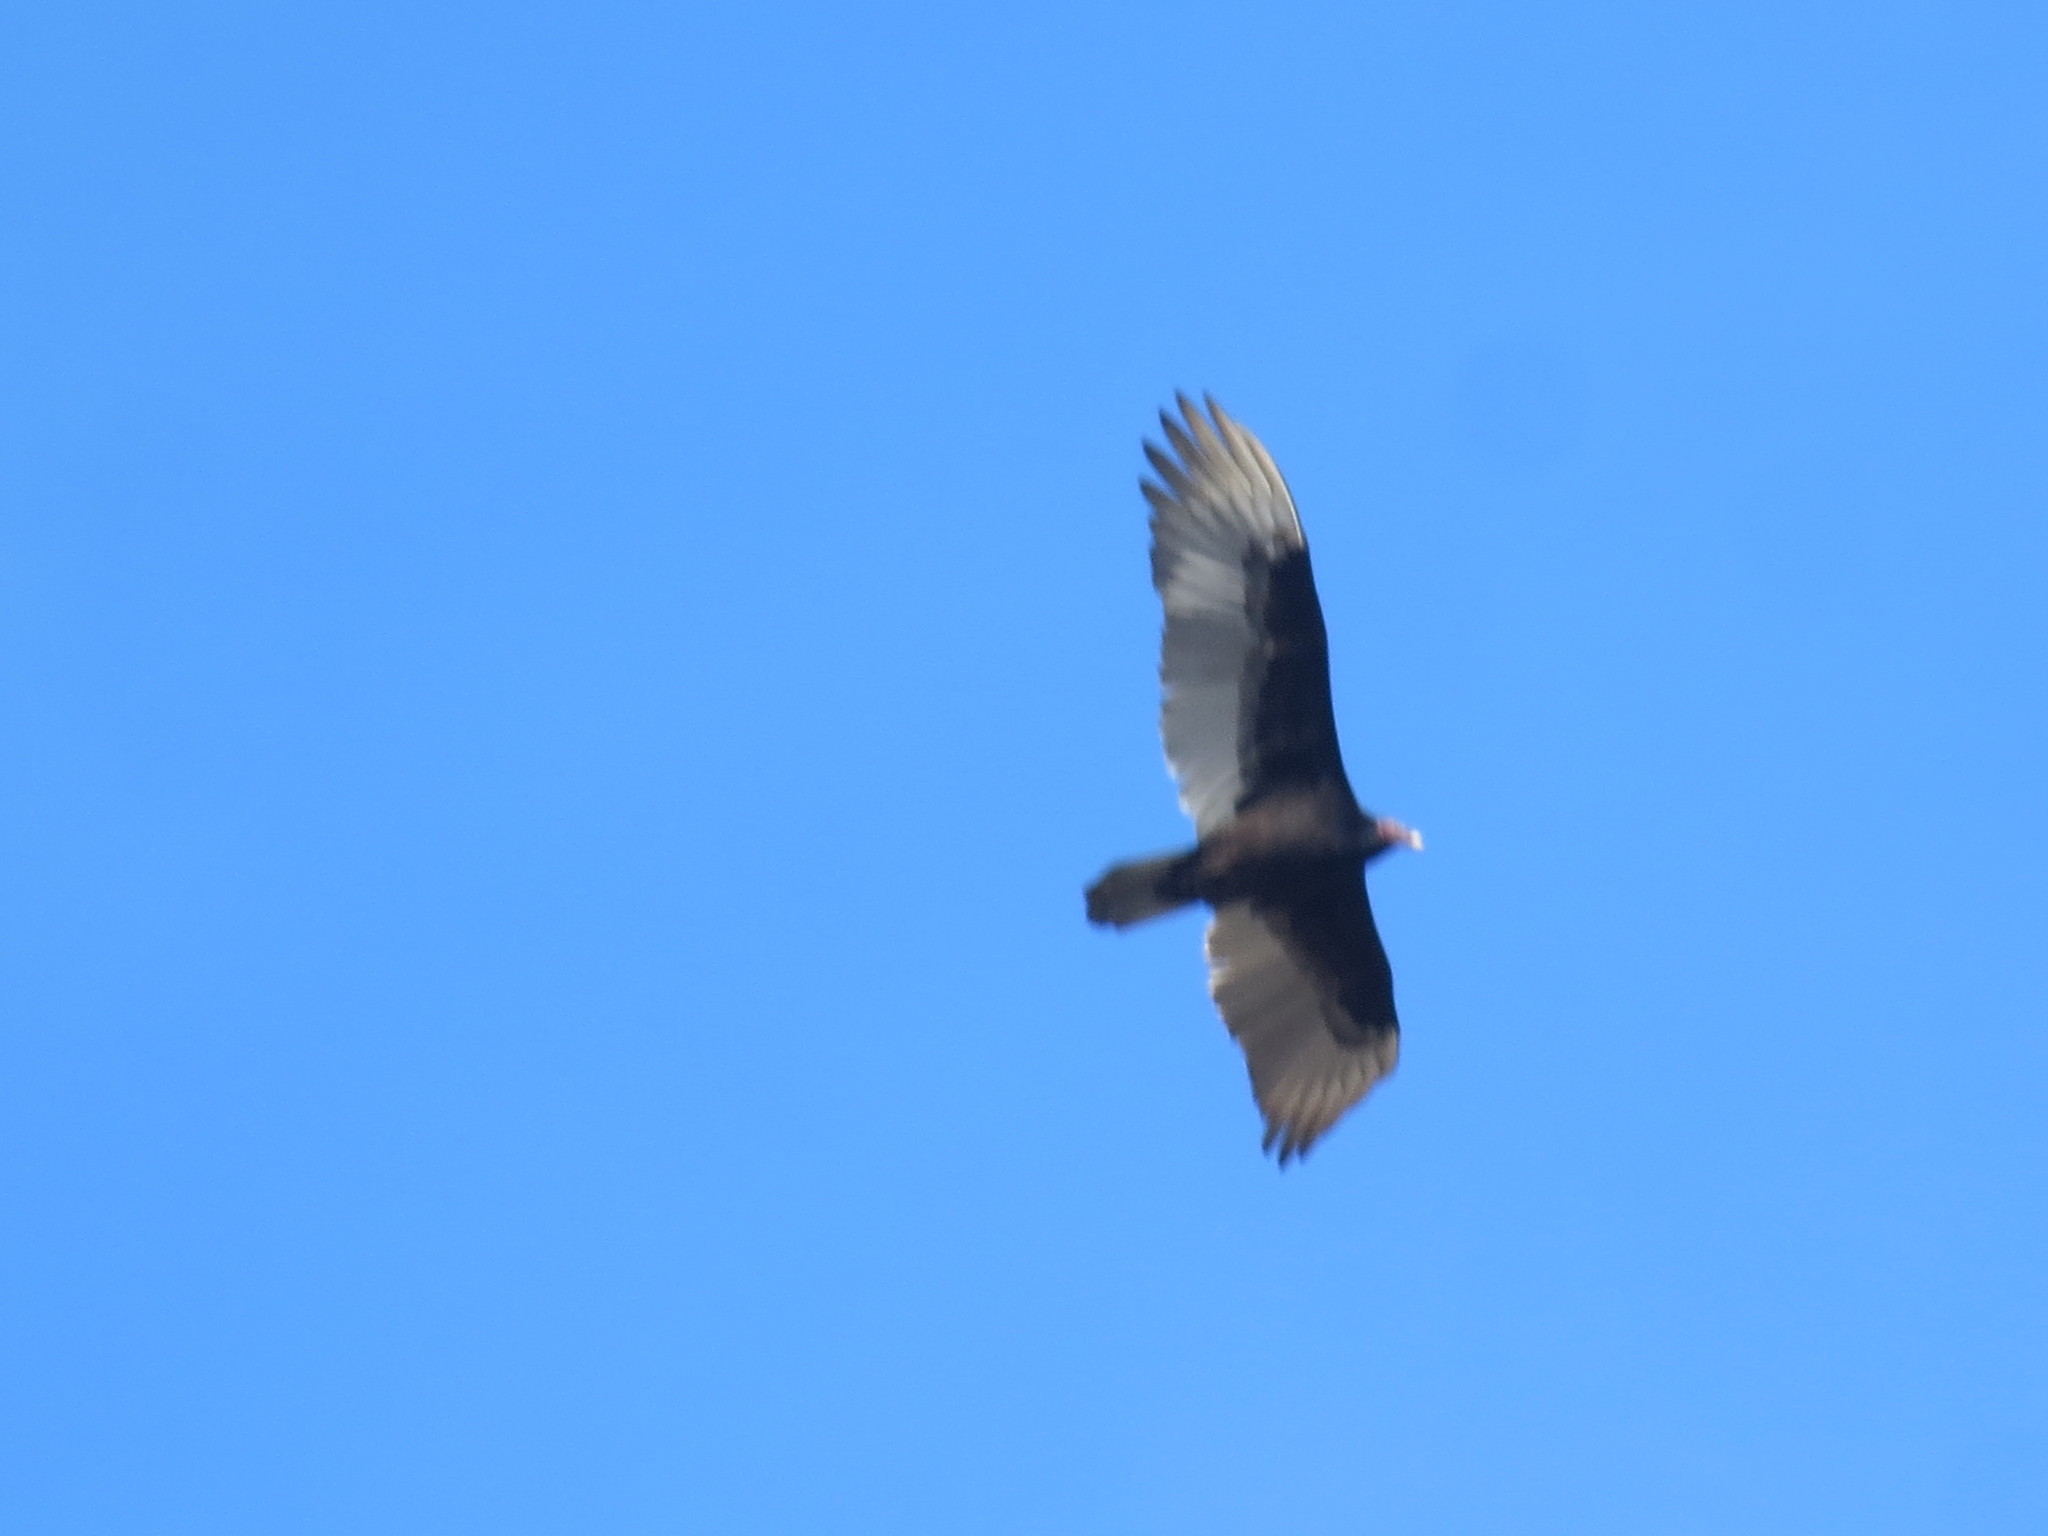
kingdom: Animalia
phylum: Chordata
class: Aves
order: Accipitriformes
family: Cathartidae
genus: Cathartes
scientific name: Cathartes aura
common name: Turkey vulture
